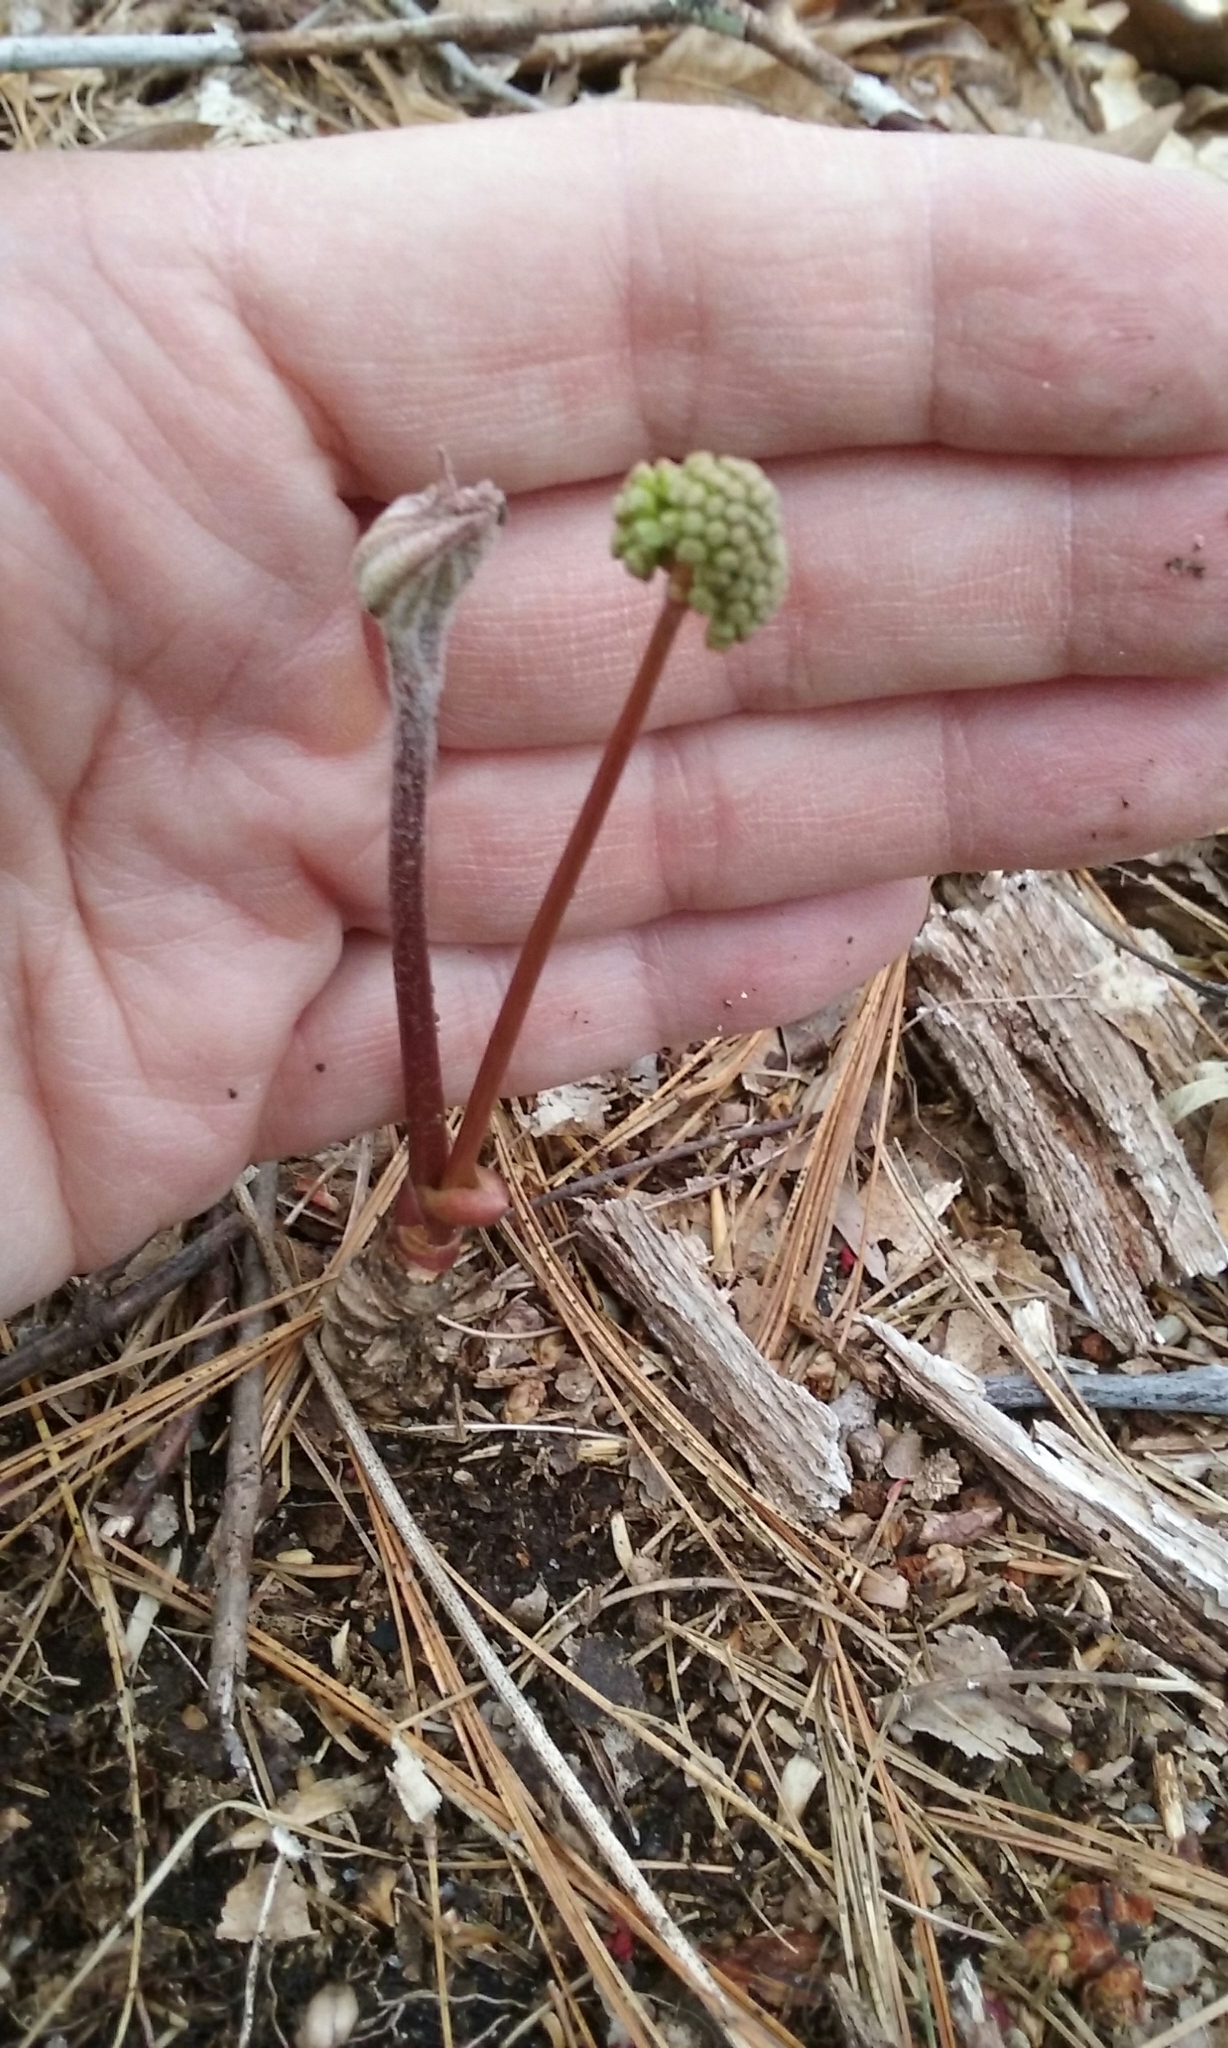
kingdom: Plantae
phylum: Tracheophyta
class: Magnoliopsida
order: Apiales
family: Araliaceae
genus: Aralia
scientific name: Aralia nudicaulis
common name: Wild sarsaparilla
